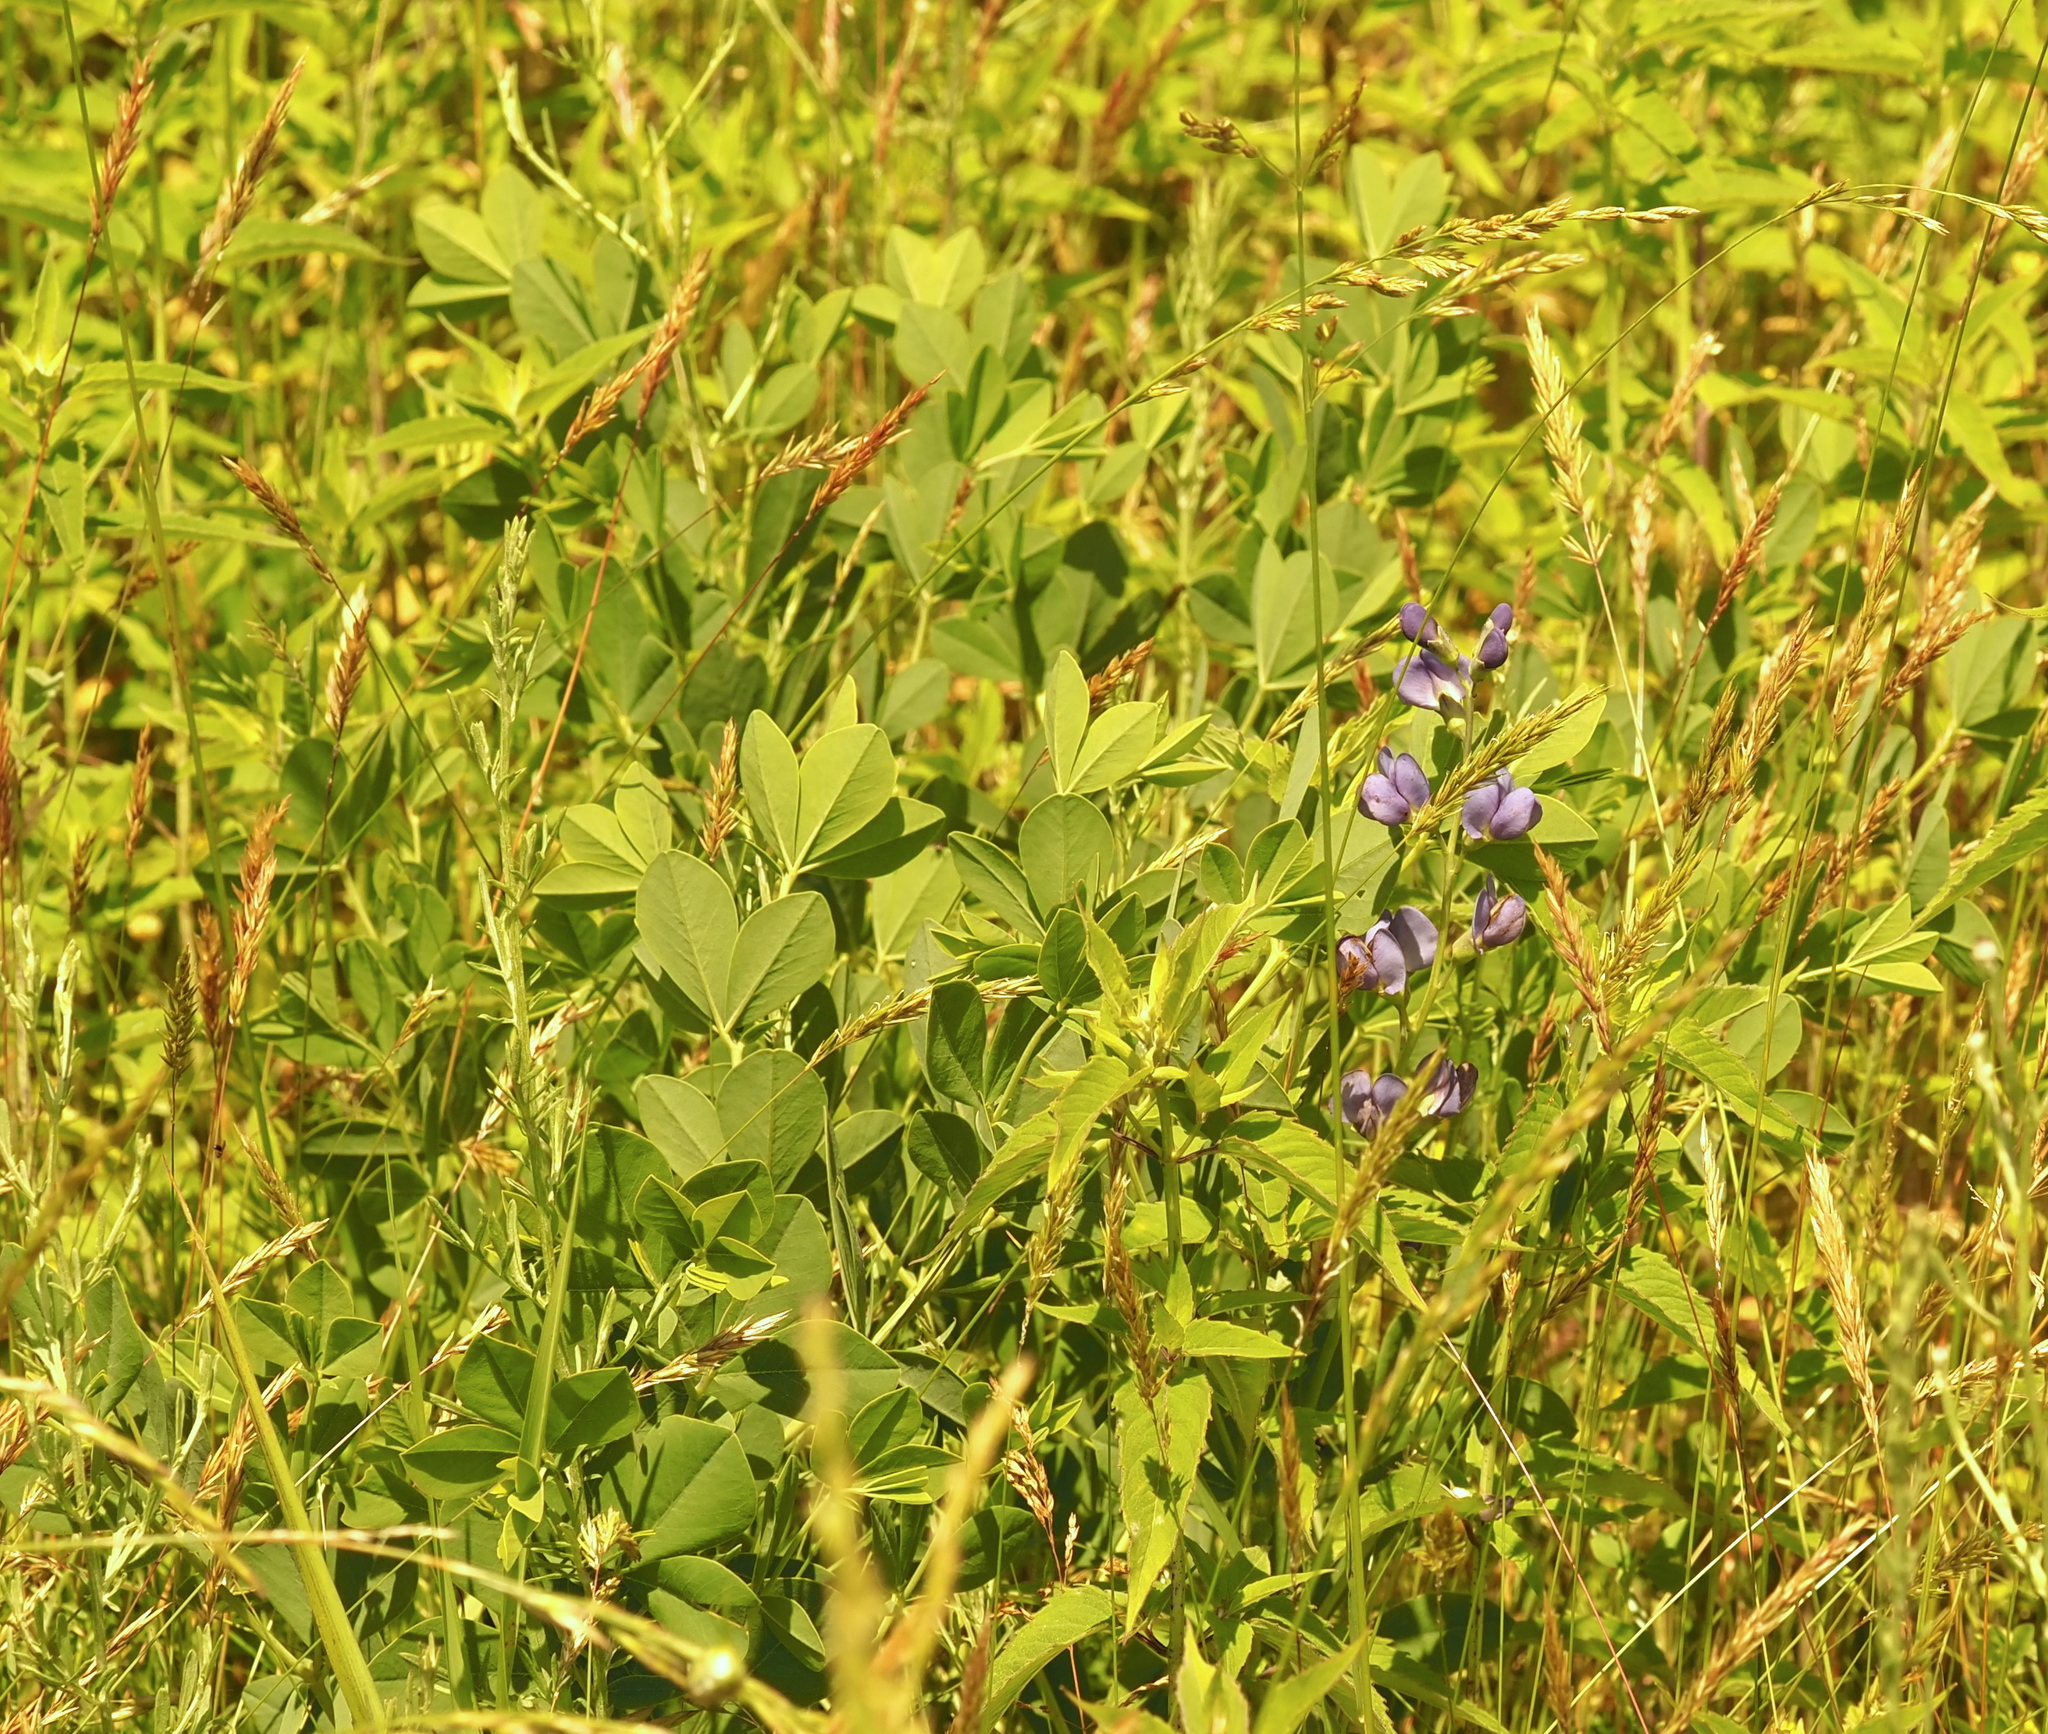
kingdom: Plantae
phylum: Tracheophyta
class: Magnoliopsida
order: Fabales
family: Fabaceae
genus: Baptisia
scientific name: Baptisia australis
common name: Blue false indigo
